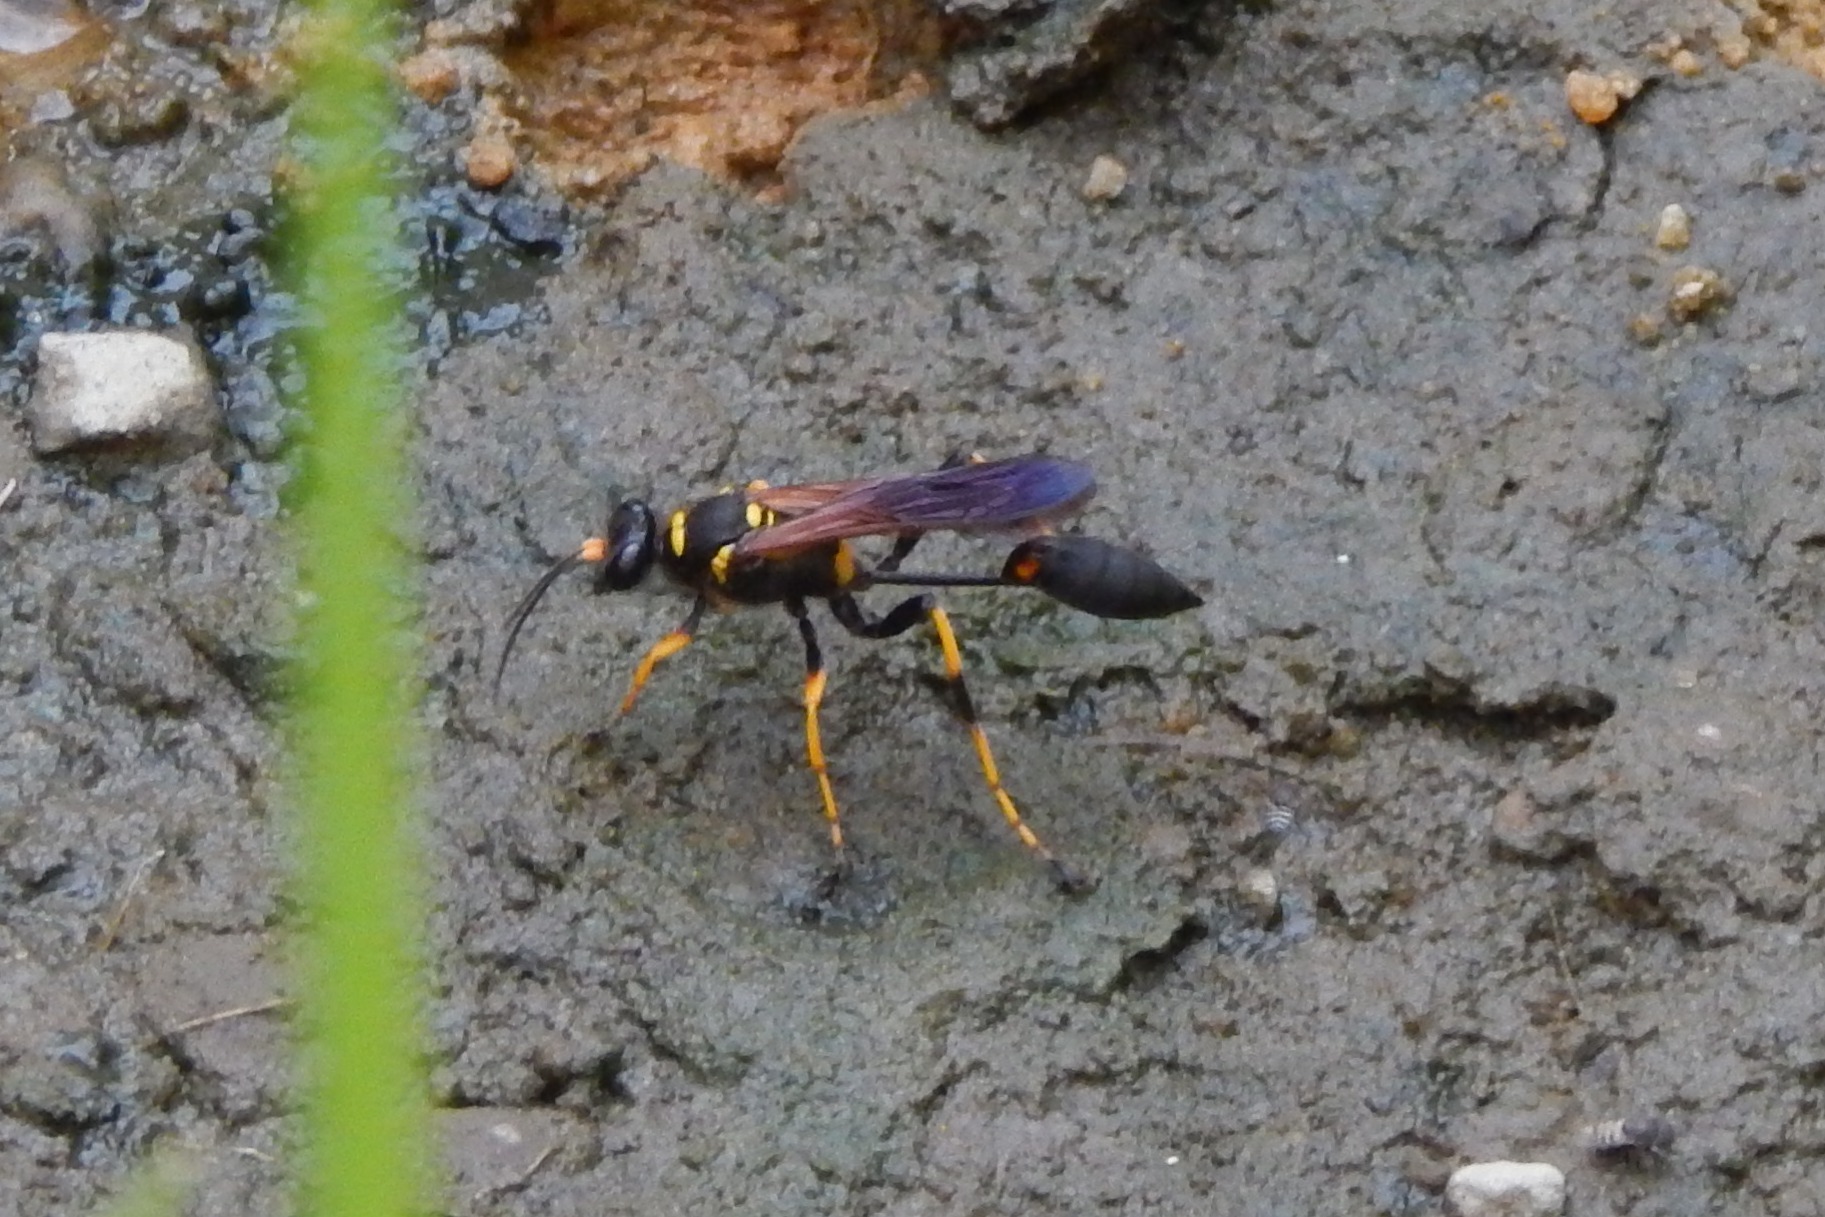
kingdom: Animalia
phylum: Arthropoda
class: Insecta
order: Hymenoptera
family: Sphecidae
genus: Sceliphron
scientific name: Sceliphron caementarium
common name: Mud dauber
